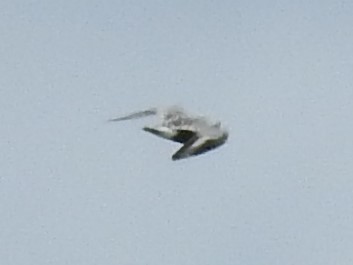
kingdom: Animalia
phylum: Chordata
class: Aves
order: Charadriiformes
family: Charadriidae
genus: Pluvialis
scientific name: Pluvialis squatarola
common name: Grey plover
